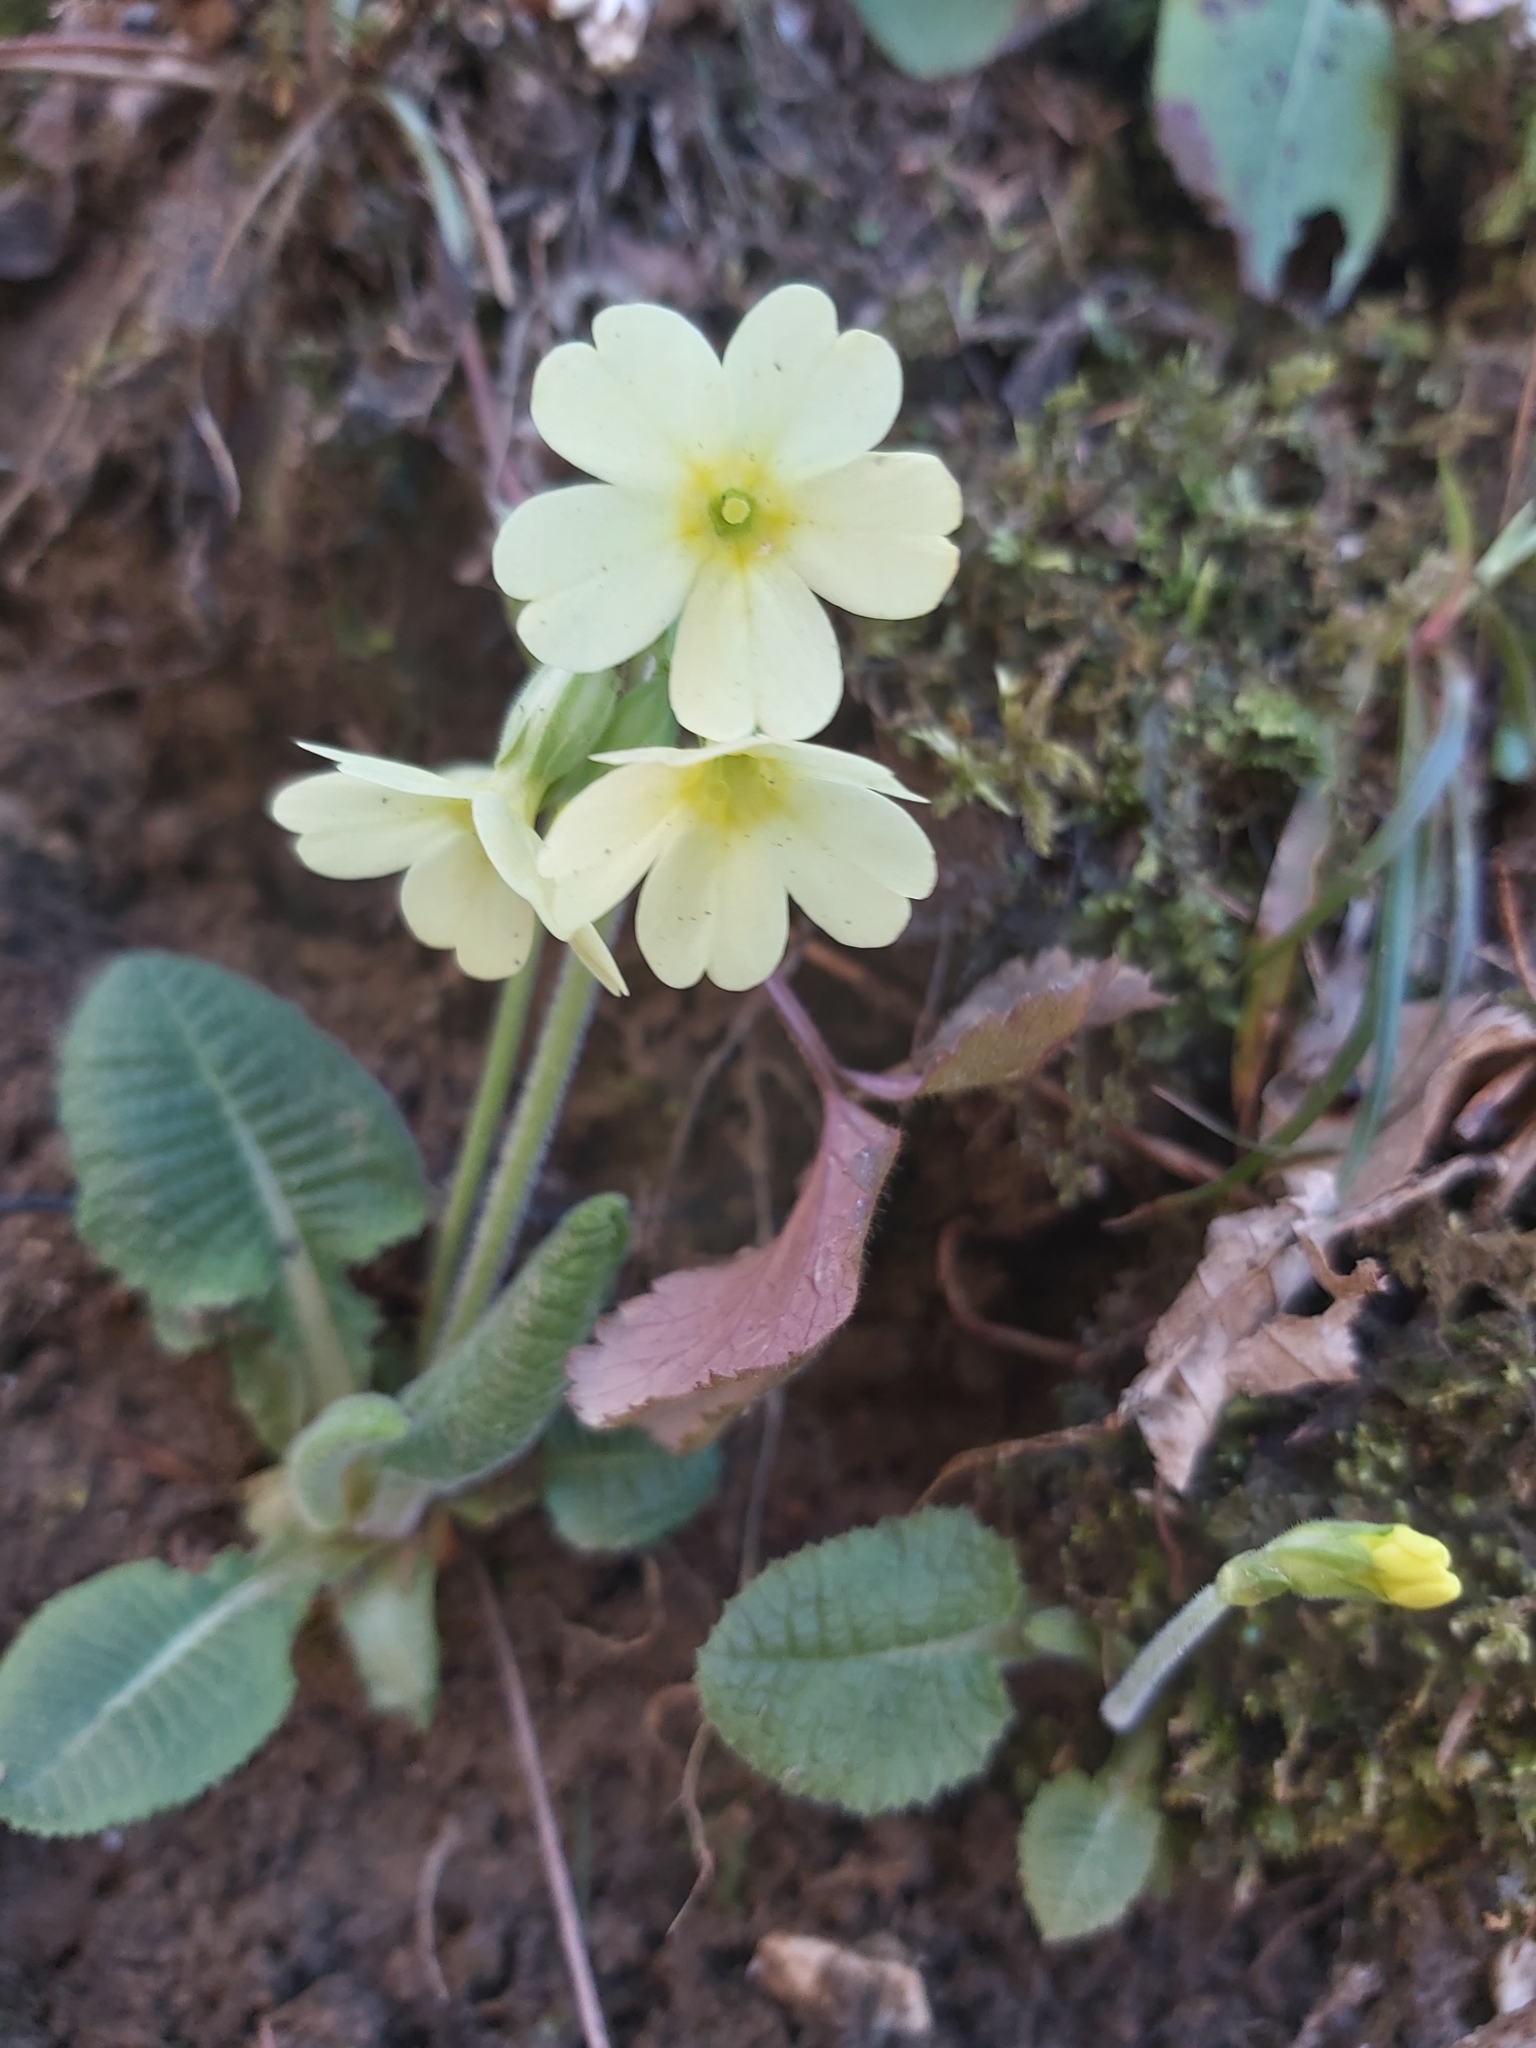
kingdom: Plantae
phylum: Tracheophyta
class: Magnoliopsida
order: Ericales
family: Primulaceae
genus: Primula
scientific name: Primula elatior
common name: Oxlip
